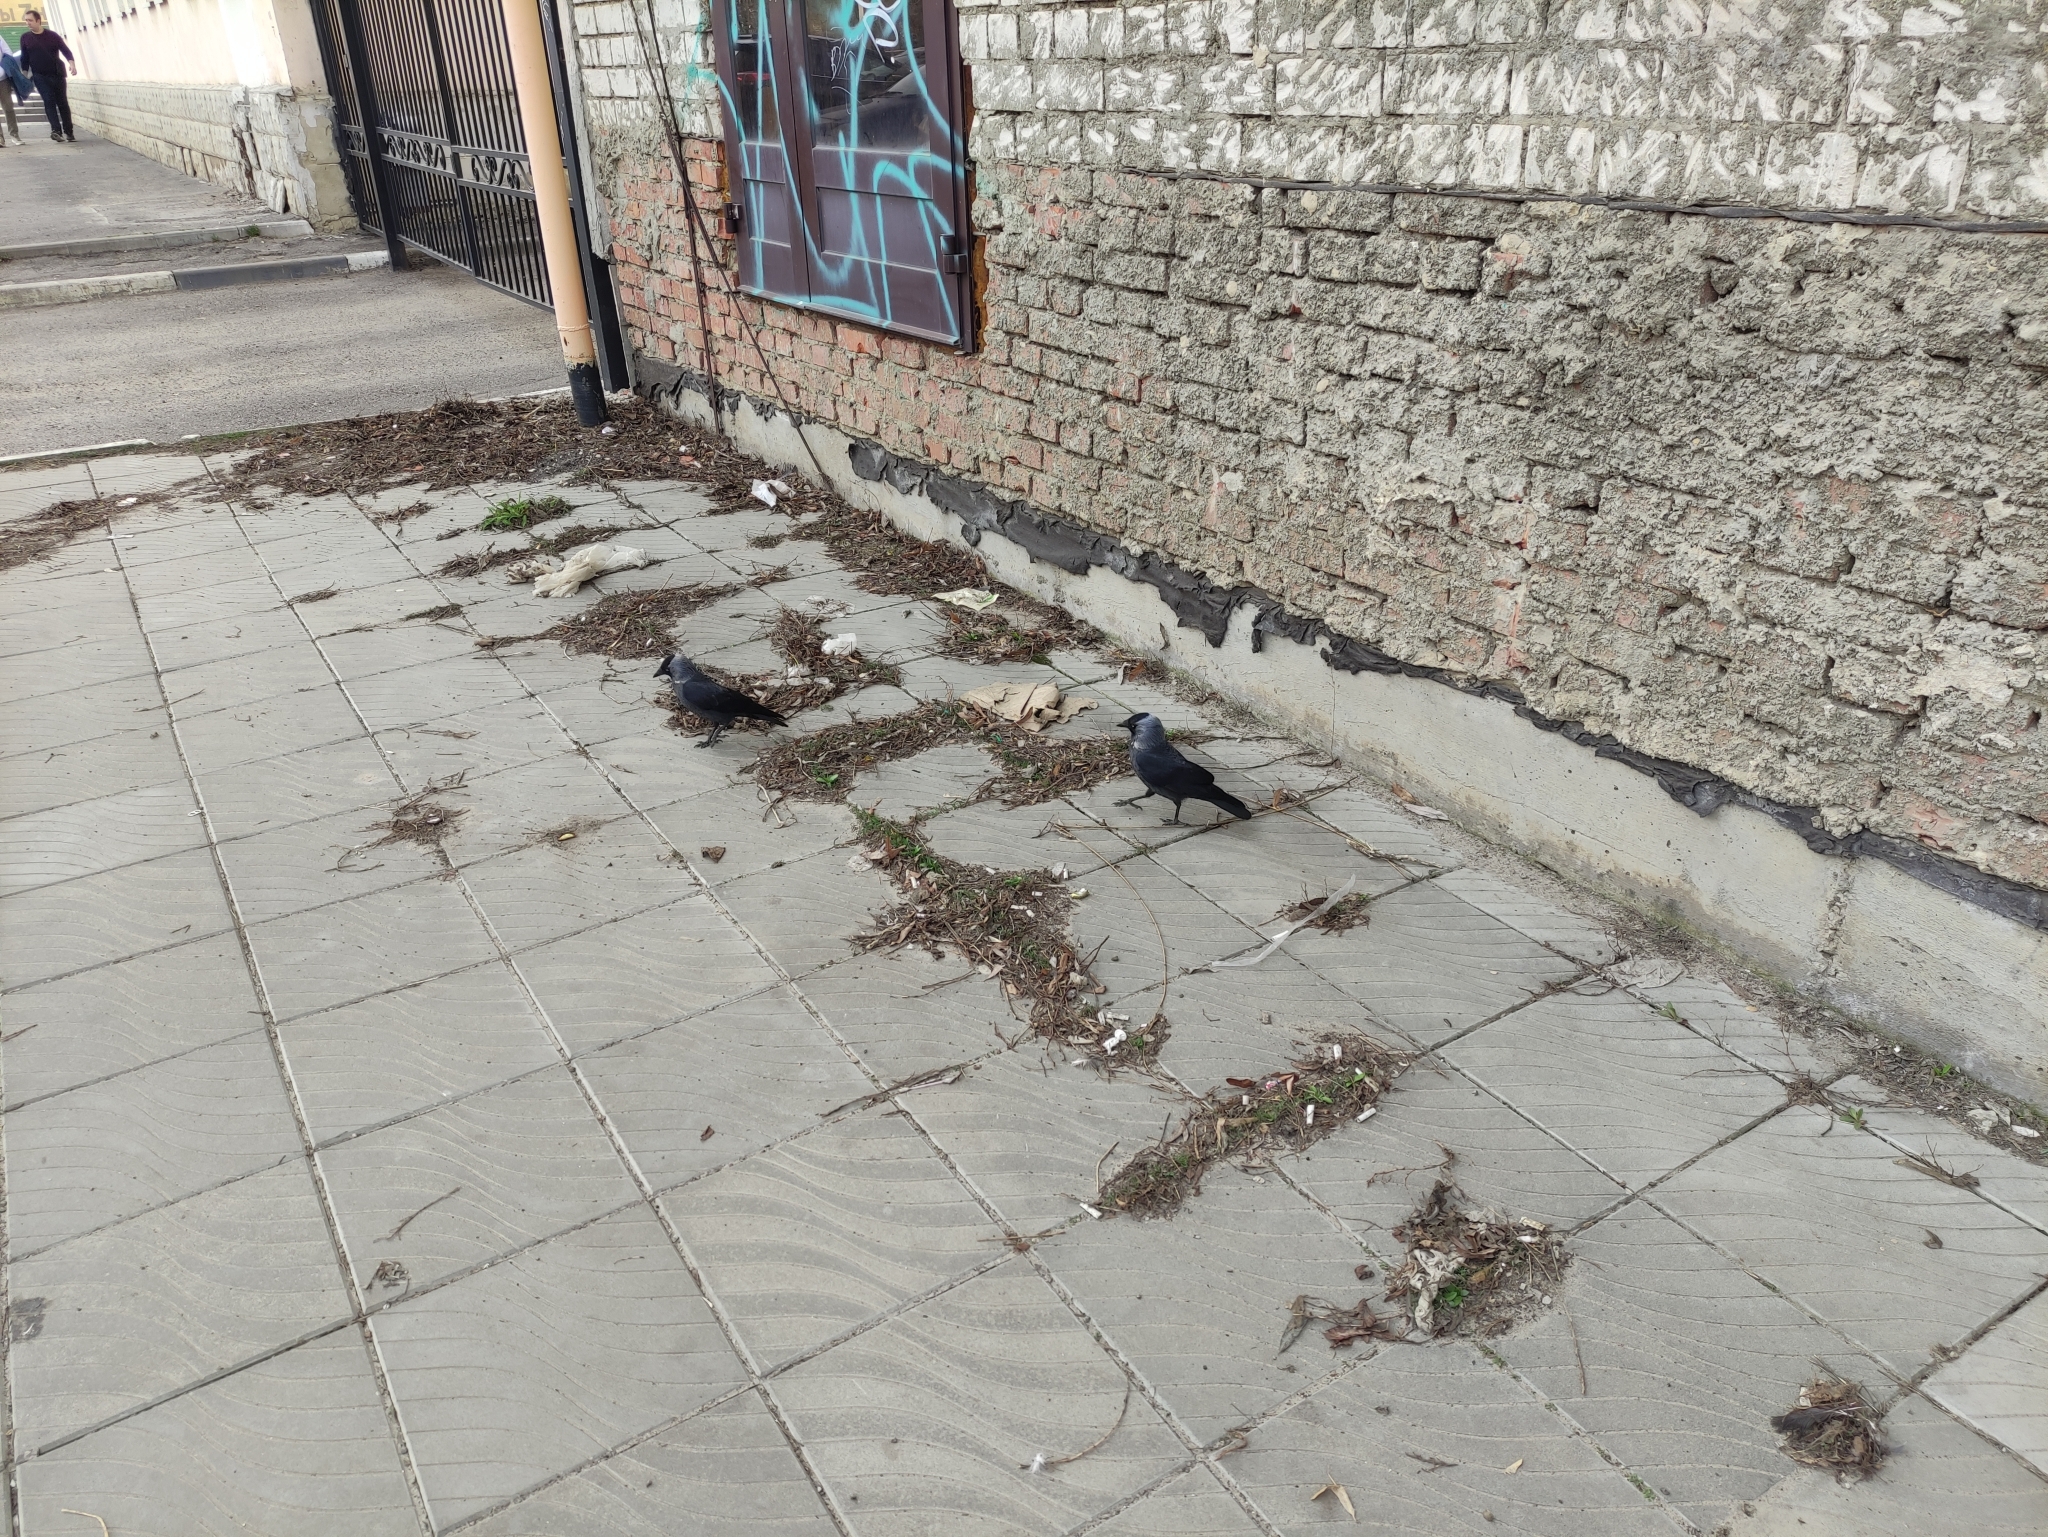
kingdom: Animalia
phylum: Chordata
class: Aves
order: Passeriformes
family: Corvidae
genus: Coloeus
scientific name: Coloeus monedula
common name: Western jackdaw
